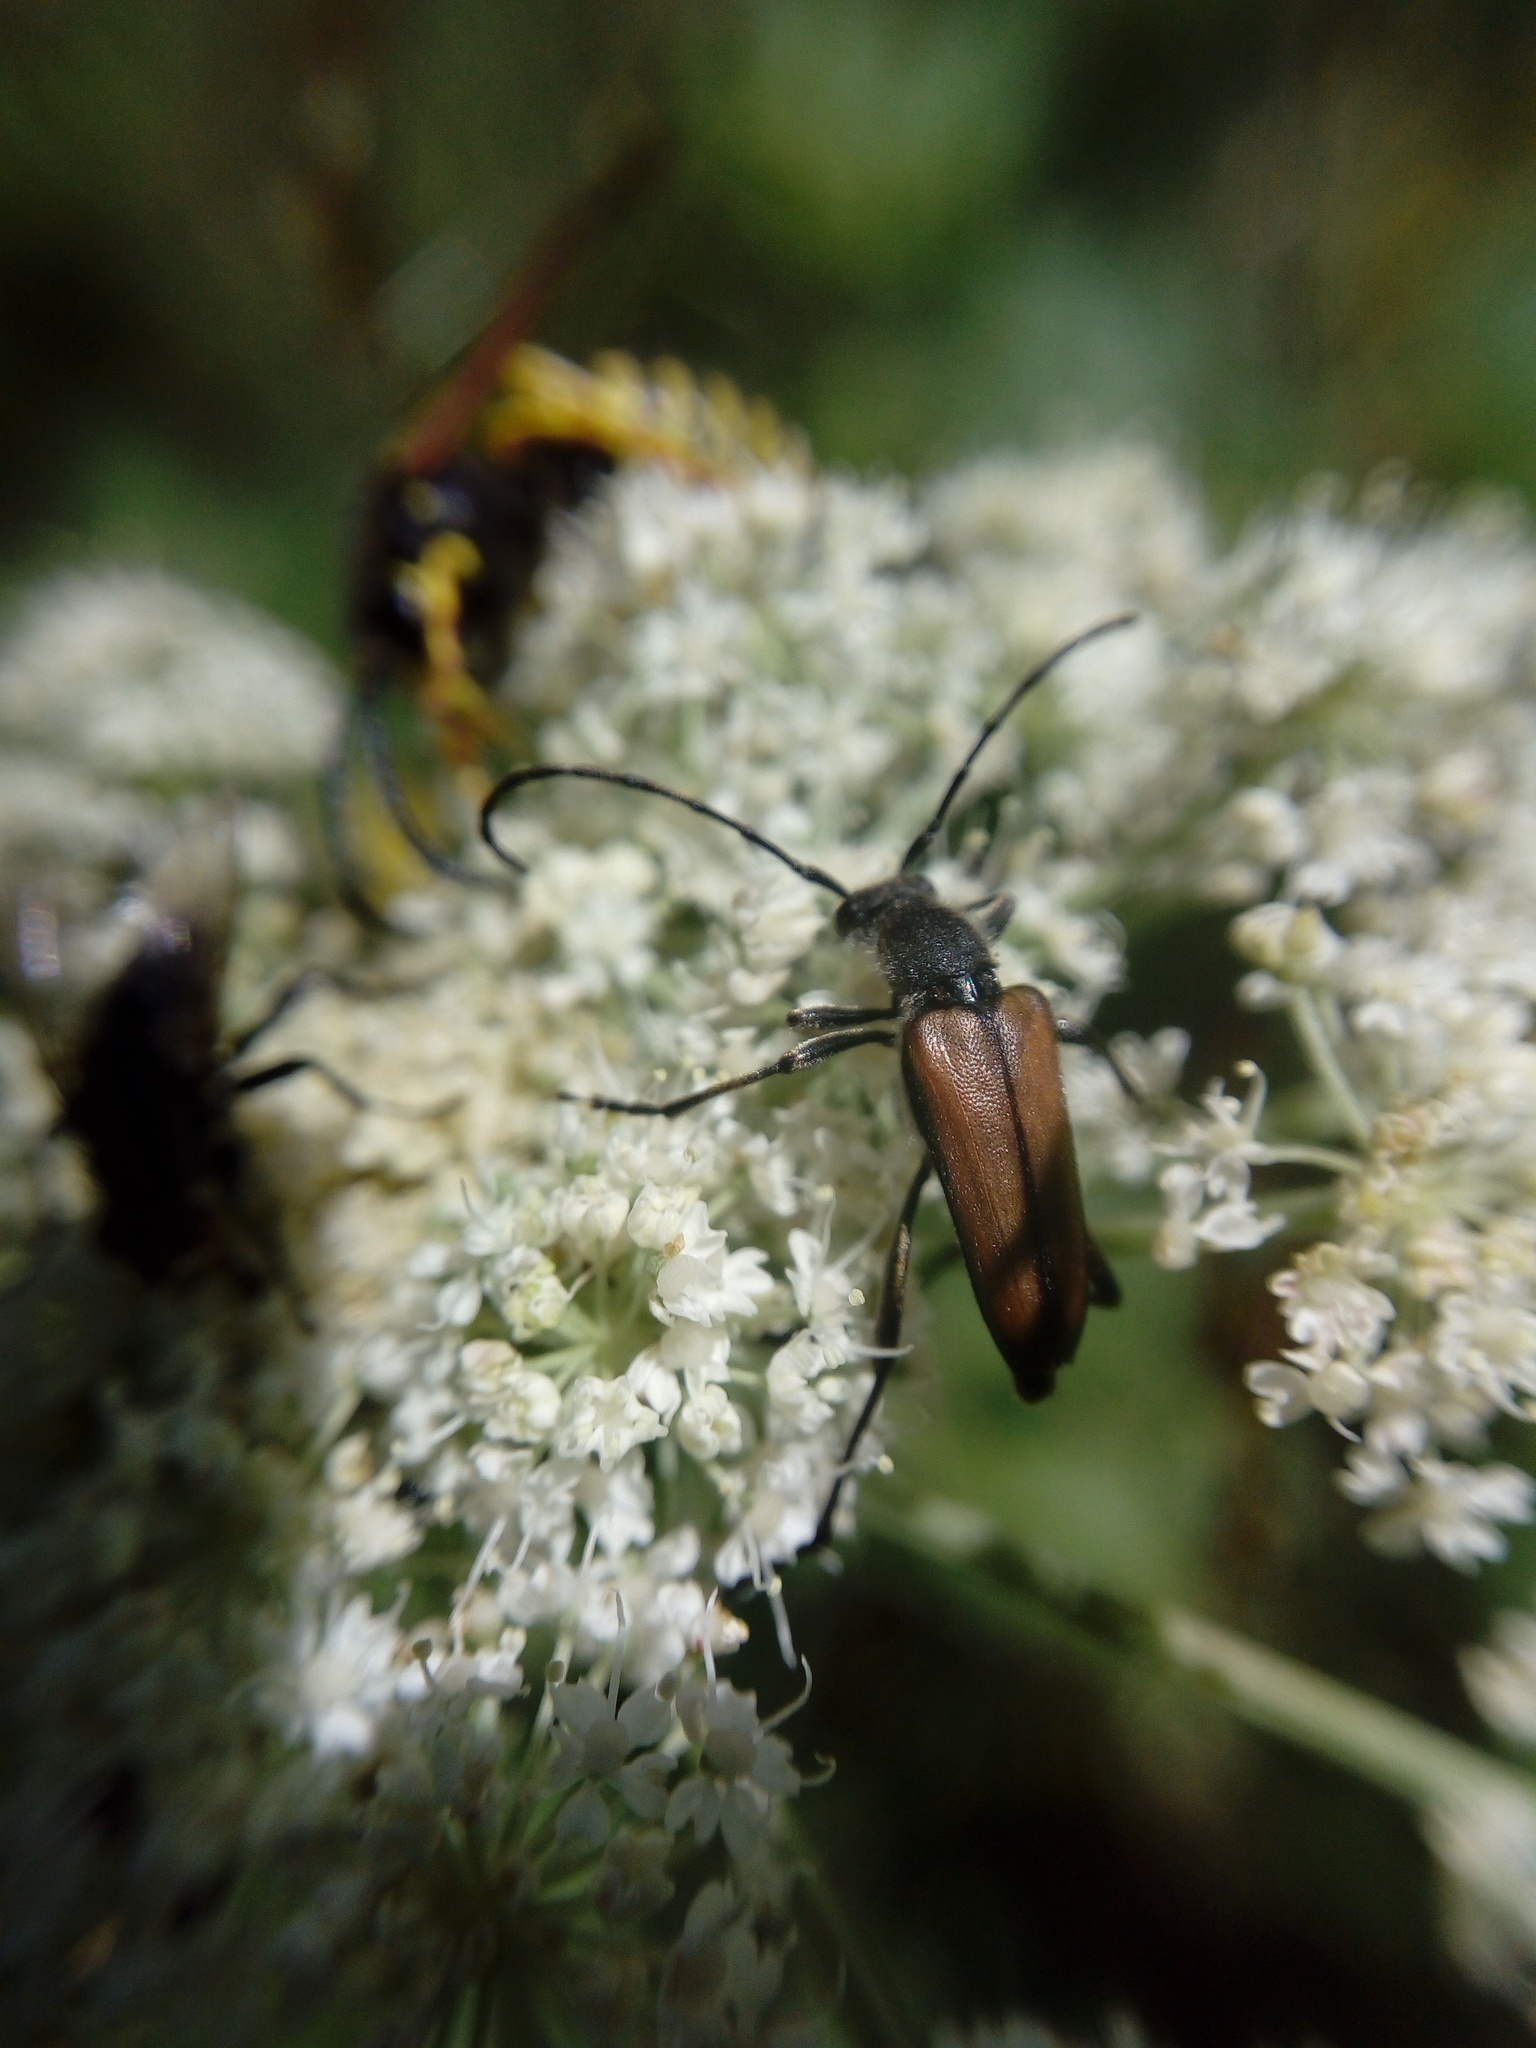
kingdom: Animalia
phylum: Arthropoda
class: Insecta
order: Coleoptera
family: Cerambycidae
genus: Anastrangalia
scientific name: Anastrangalia reyi
